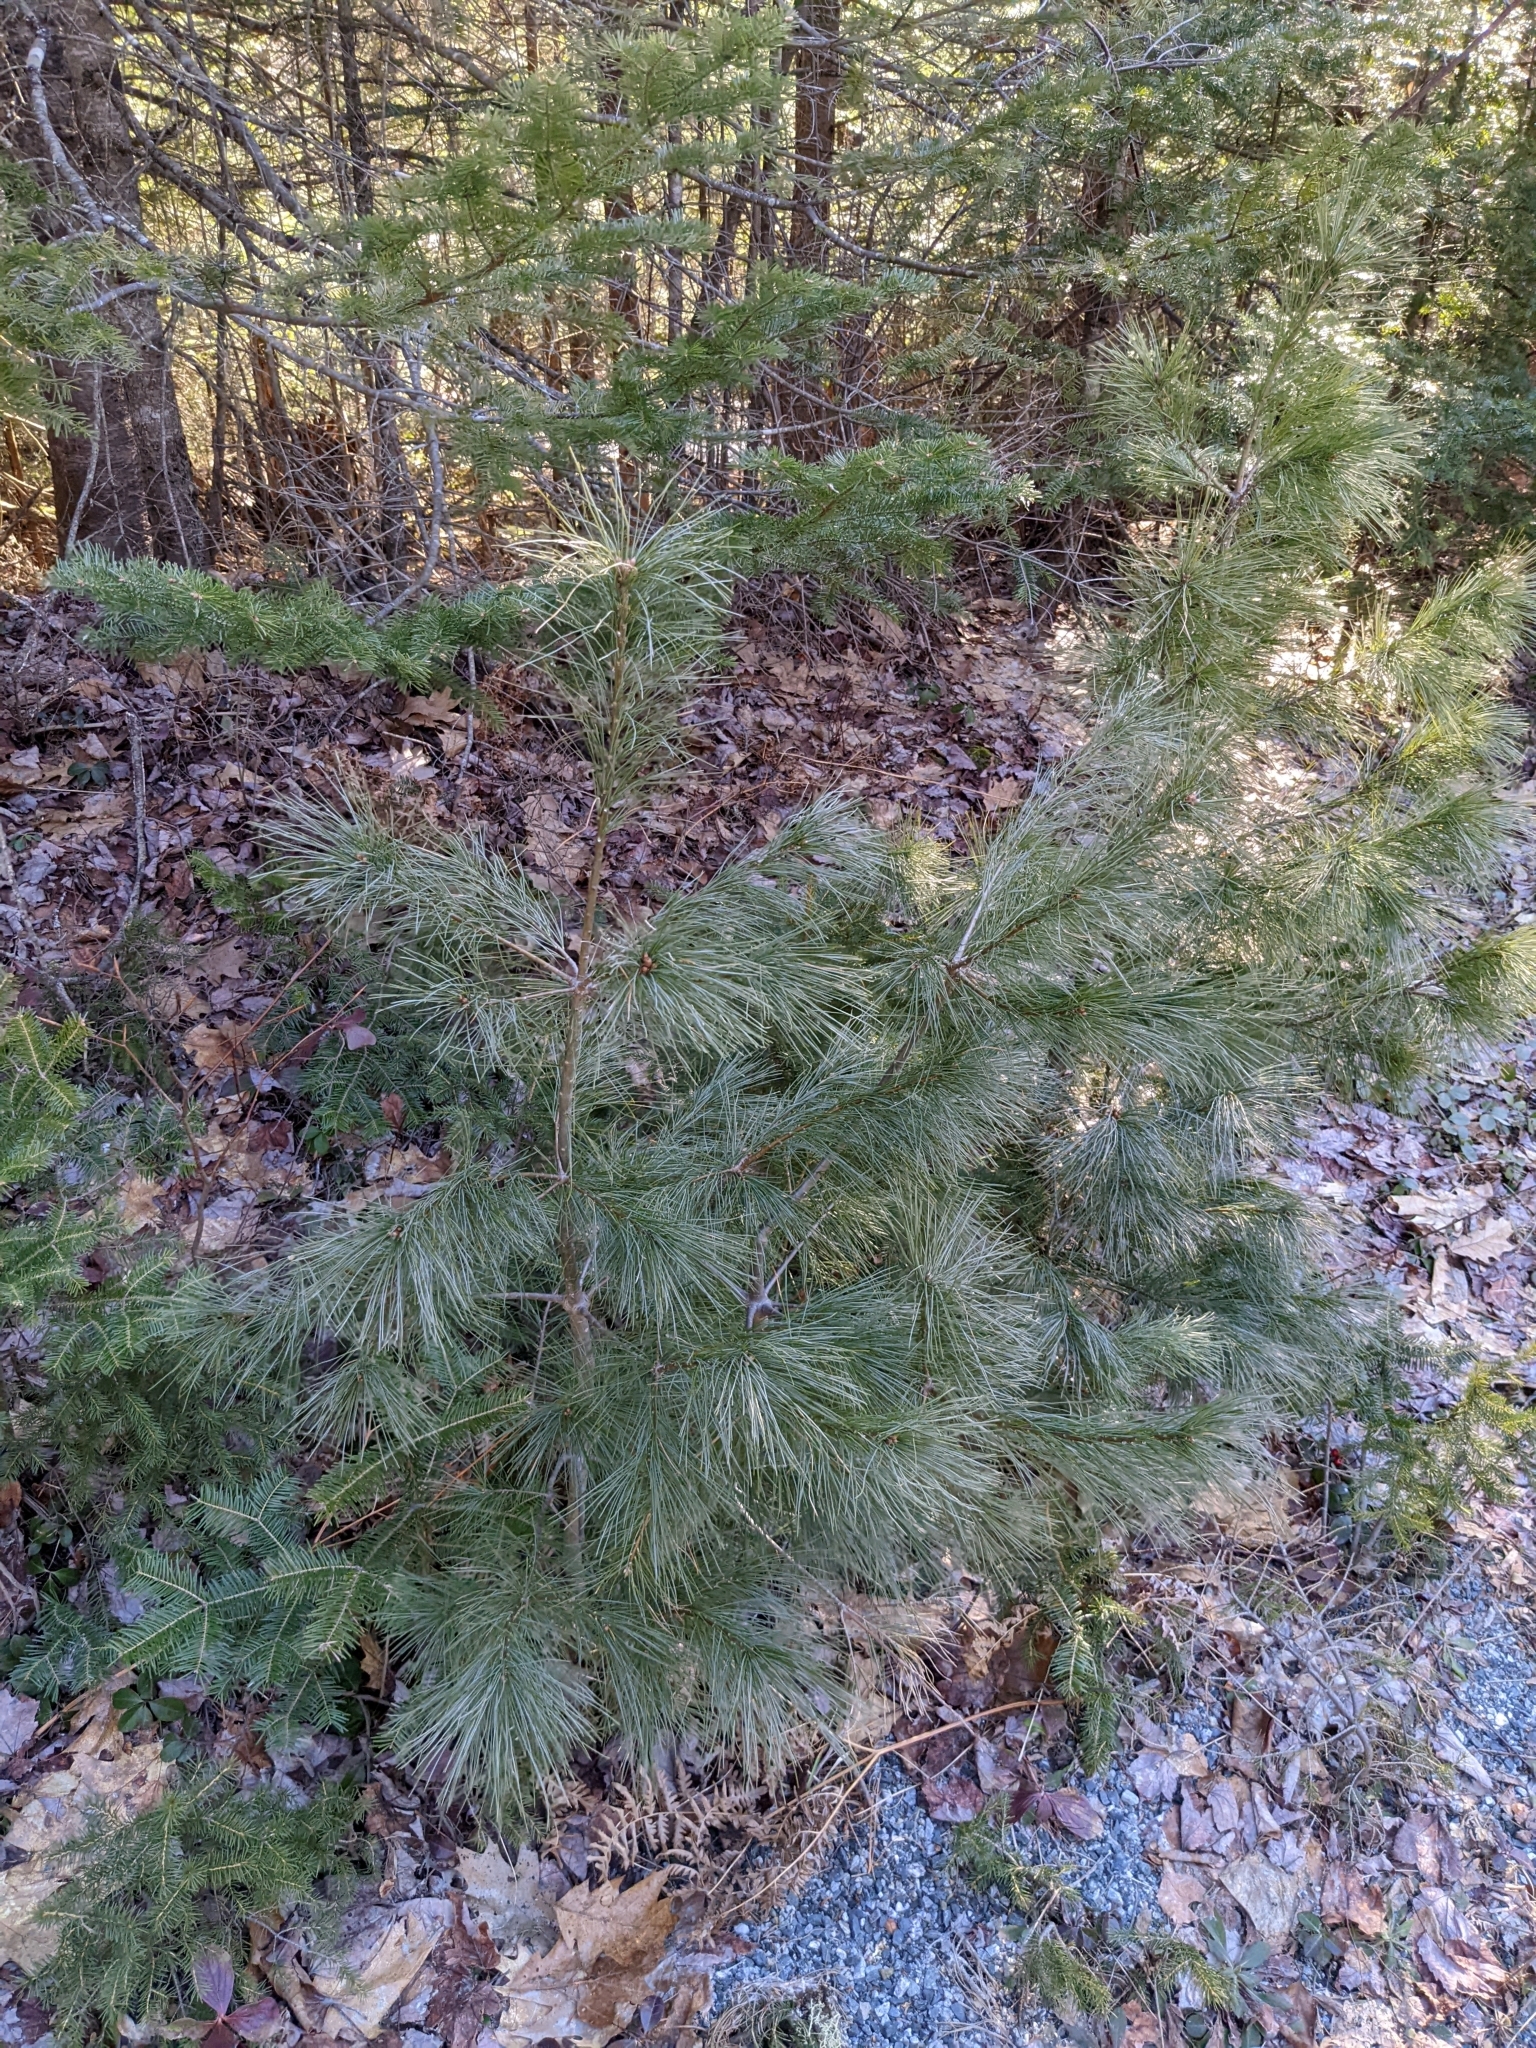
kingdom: Plantae
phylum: Tracheophyta
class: Pinopsida
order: Pinales
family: Pinaceae
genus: Pinus
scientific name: Pinus strobus
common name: Weymouth pine
